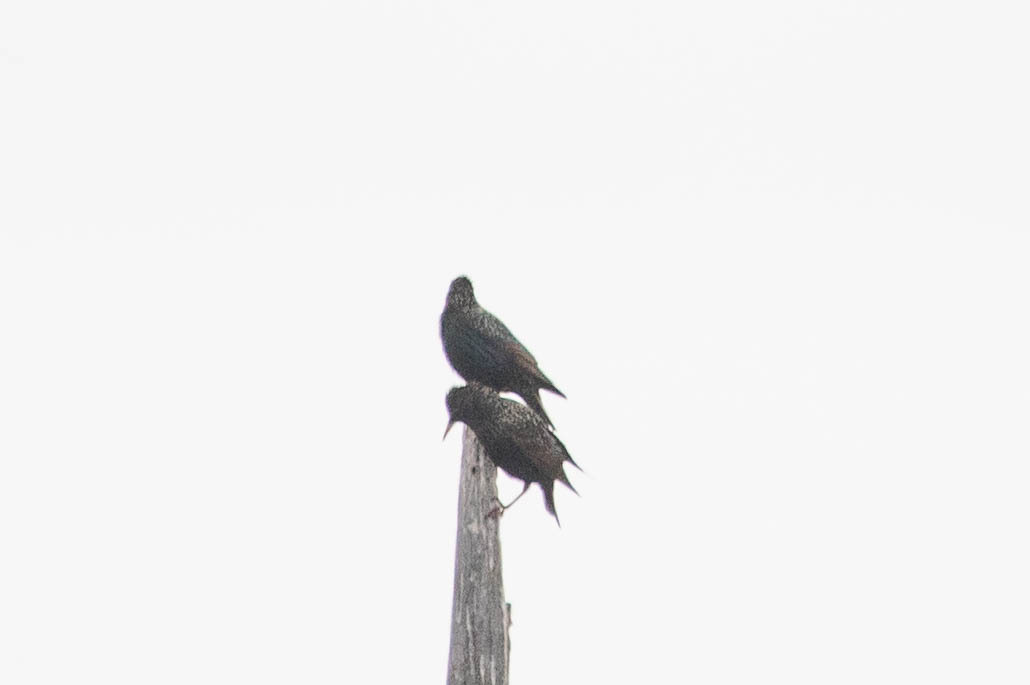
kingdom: Animalia
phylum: Chordata
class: Aves
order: Passeriformes
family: Sturnidae
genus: Sturnus
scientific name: Sturnus vulgaris
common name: Common starling
